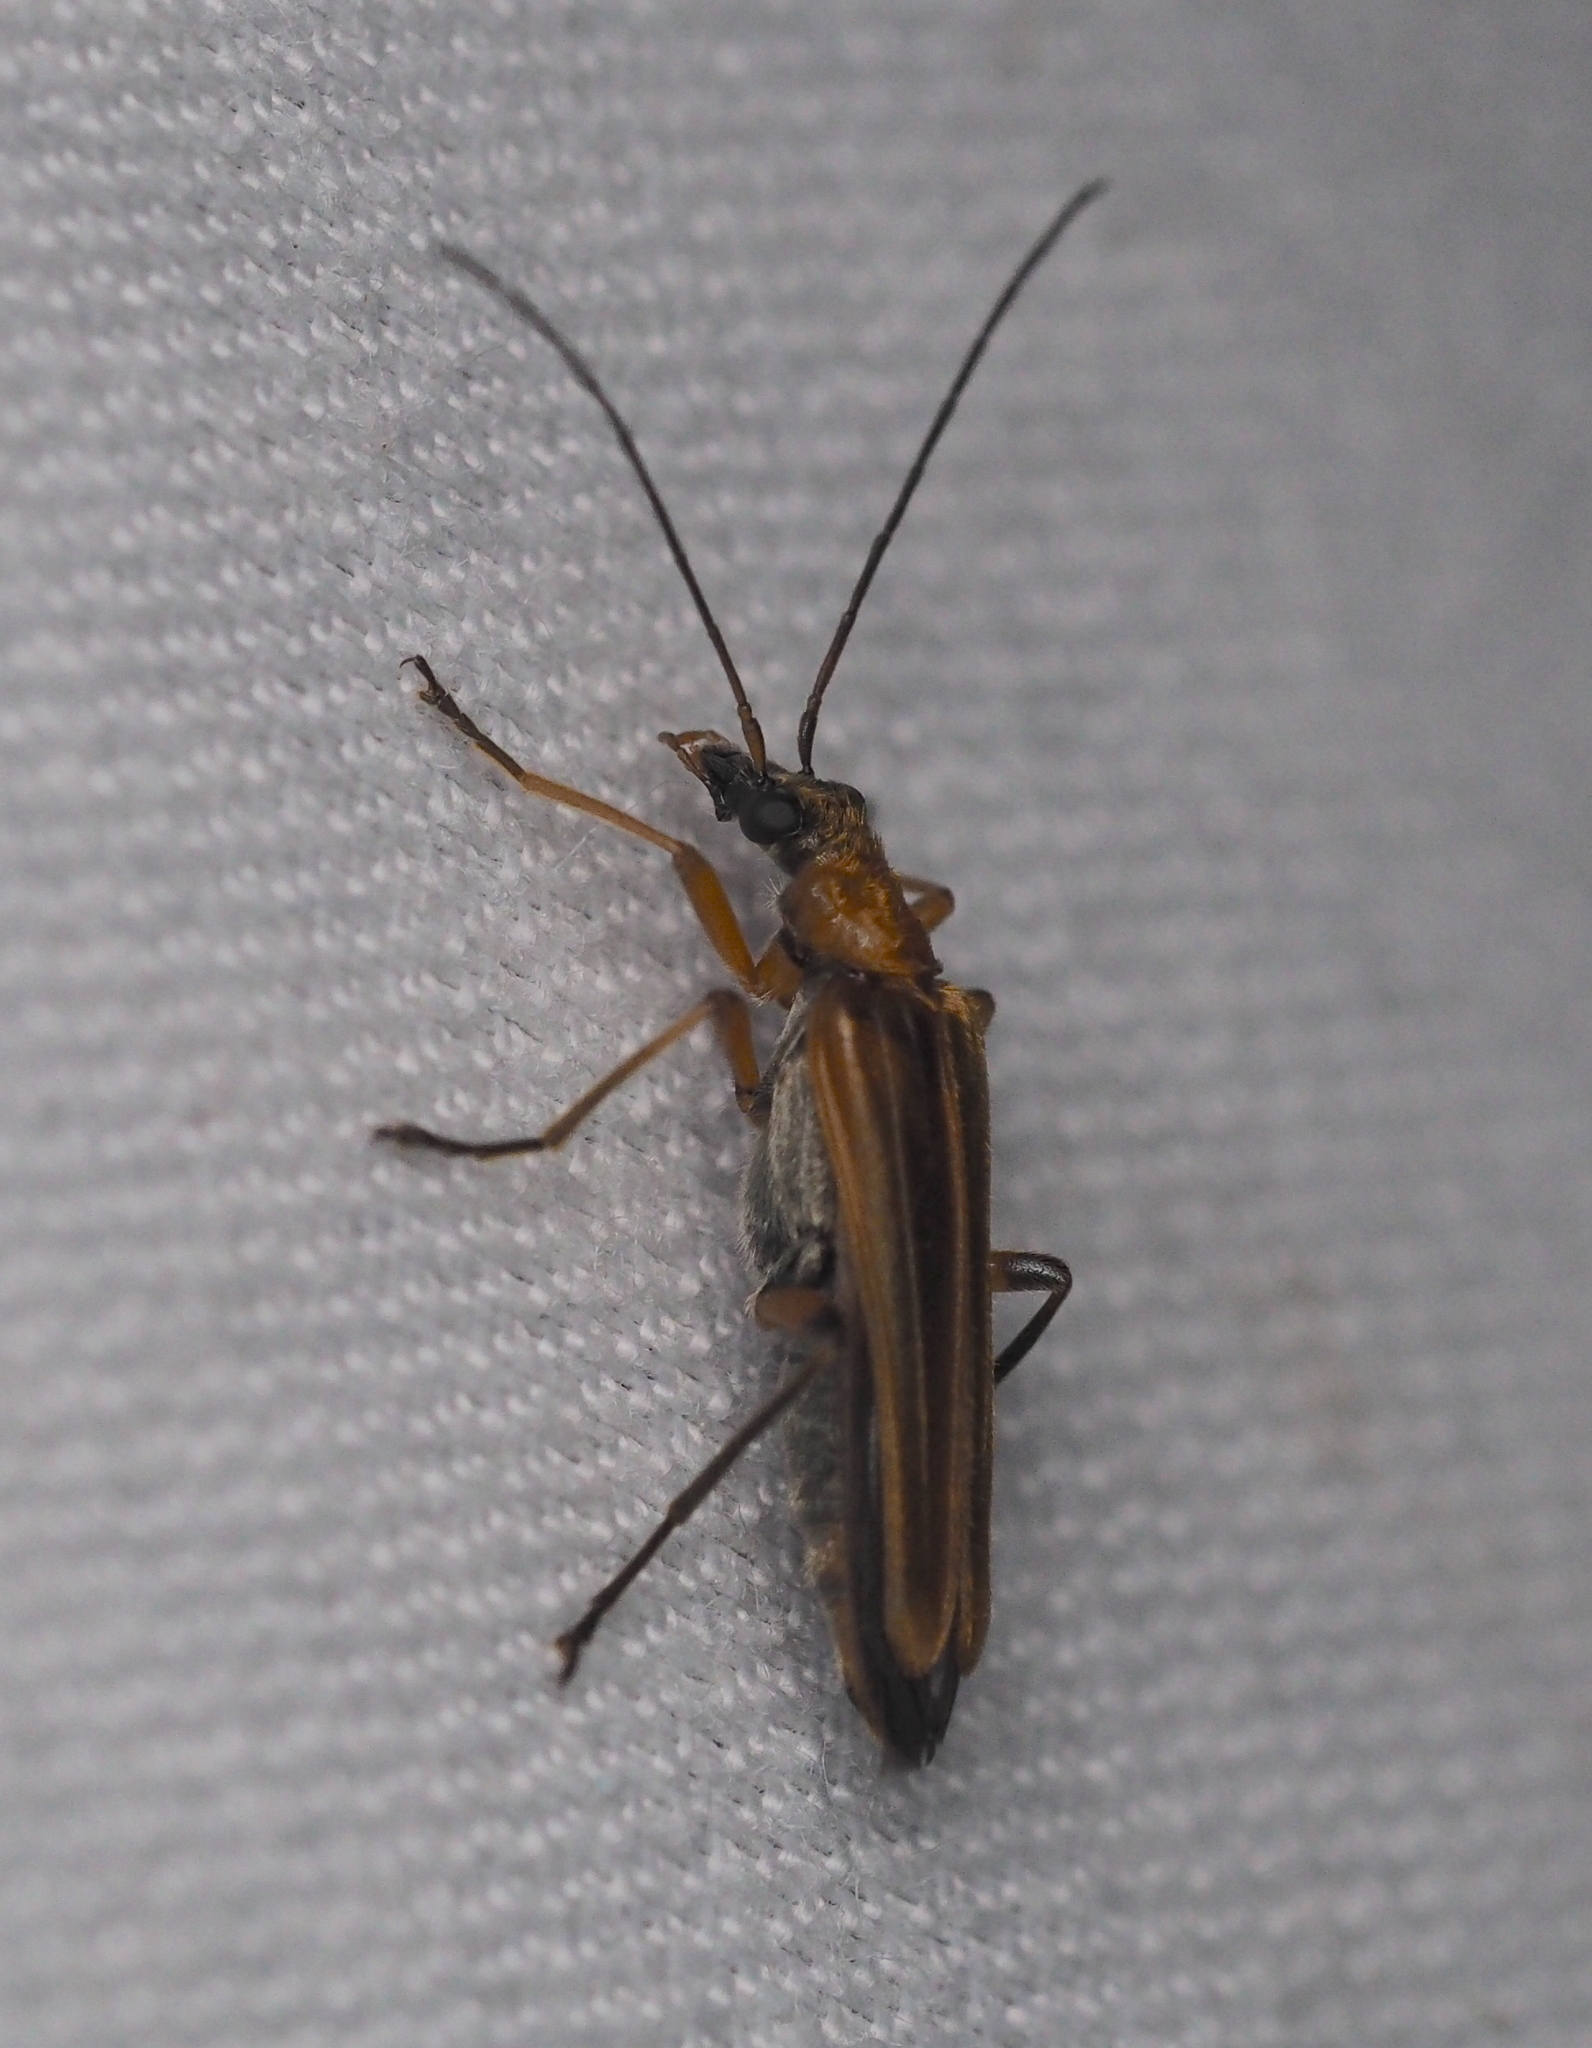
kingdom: Animalia
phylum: Arthropoda
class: Insecta
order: Coleoptera
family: Oedemeridae
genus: Oedemera
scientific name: Oedemera podagrariae
